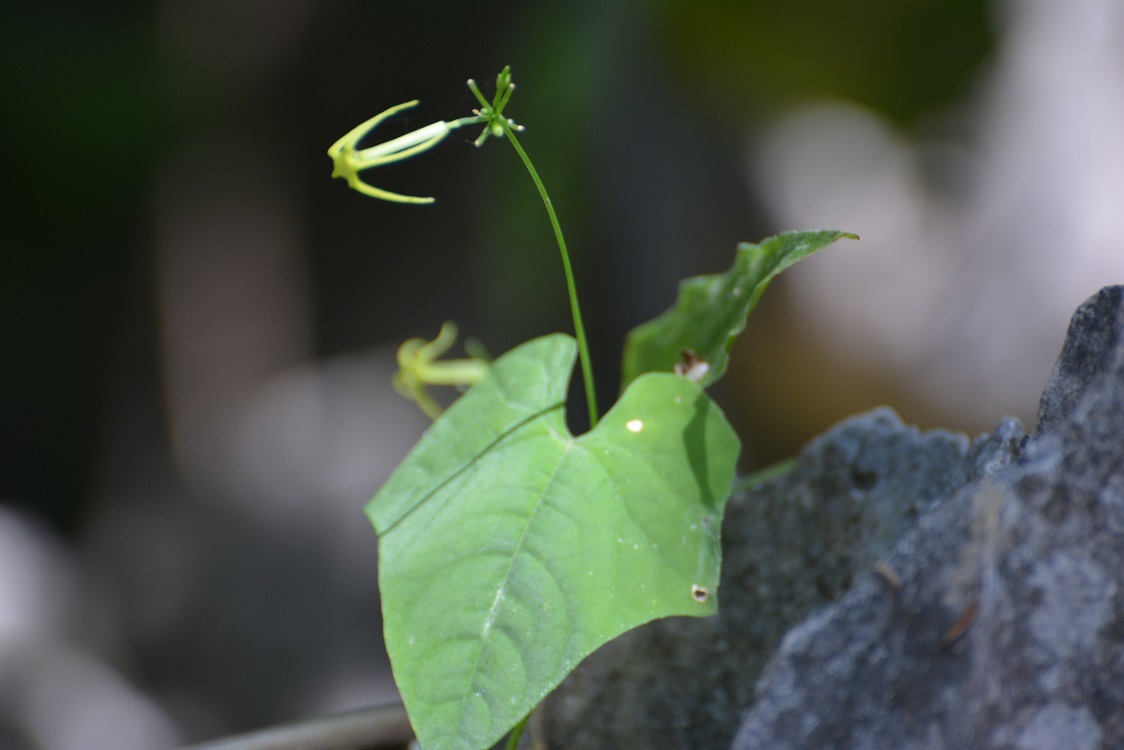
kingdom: Plantae
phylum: Tracheophyta
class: Magnoliopsida
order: Cucurbitales
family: Cucurbitaceae
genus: Cyclanthera
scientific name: Cyclanthera carthagenensis
